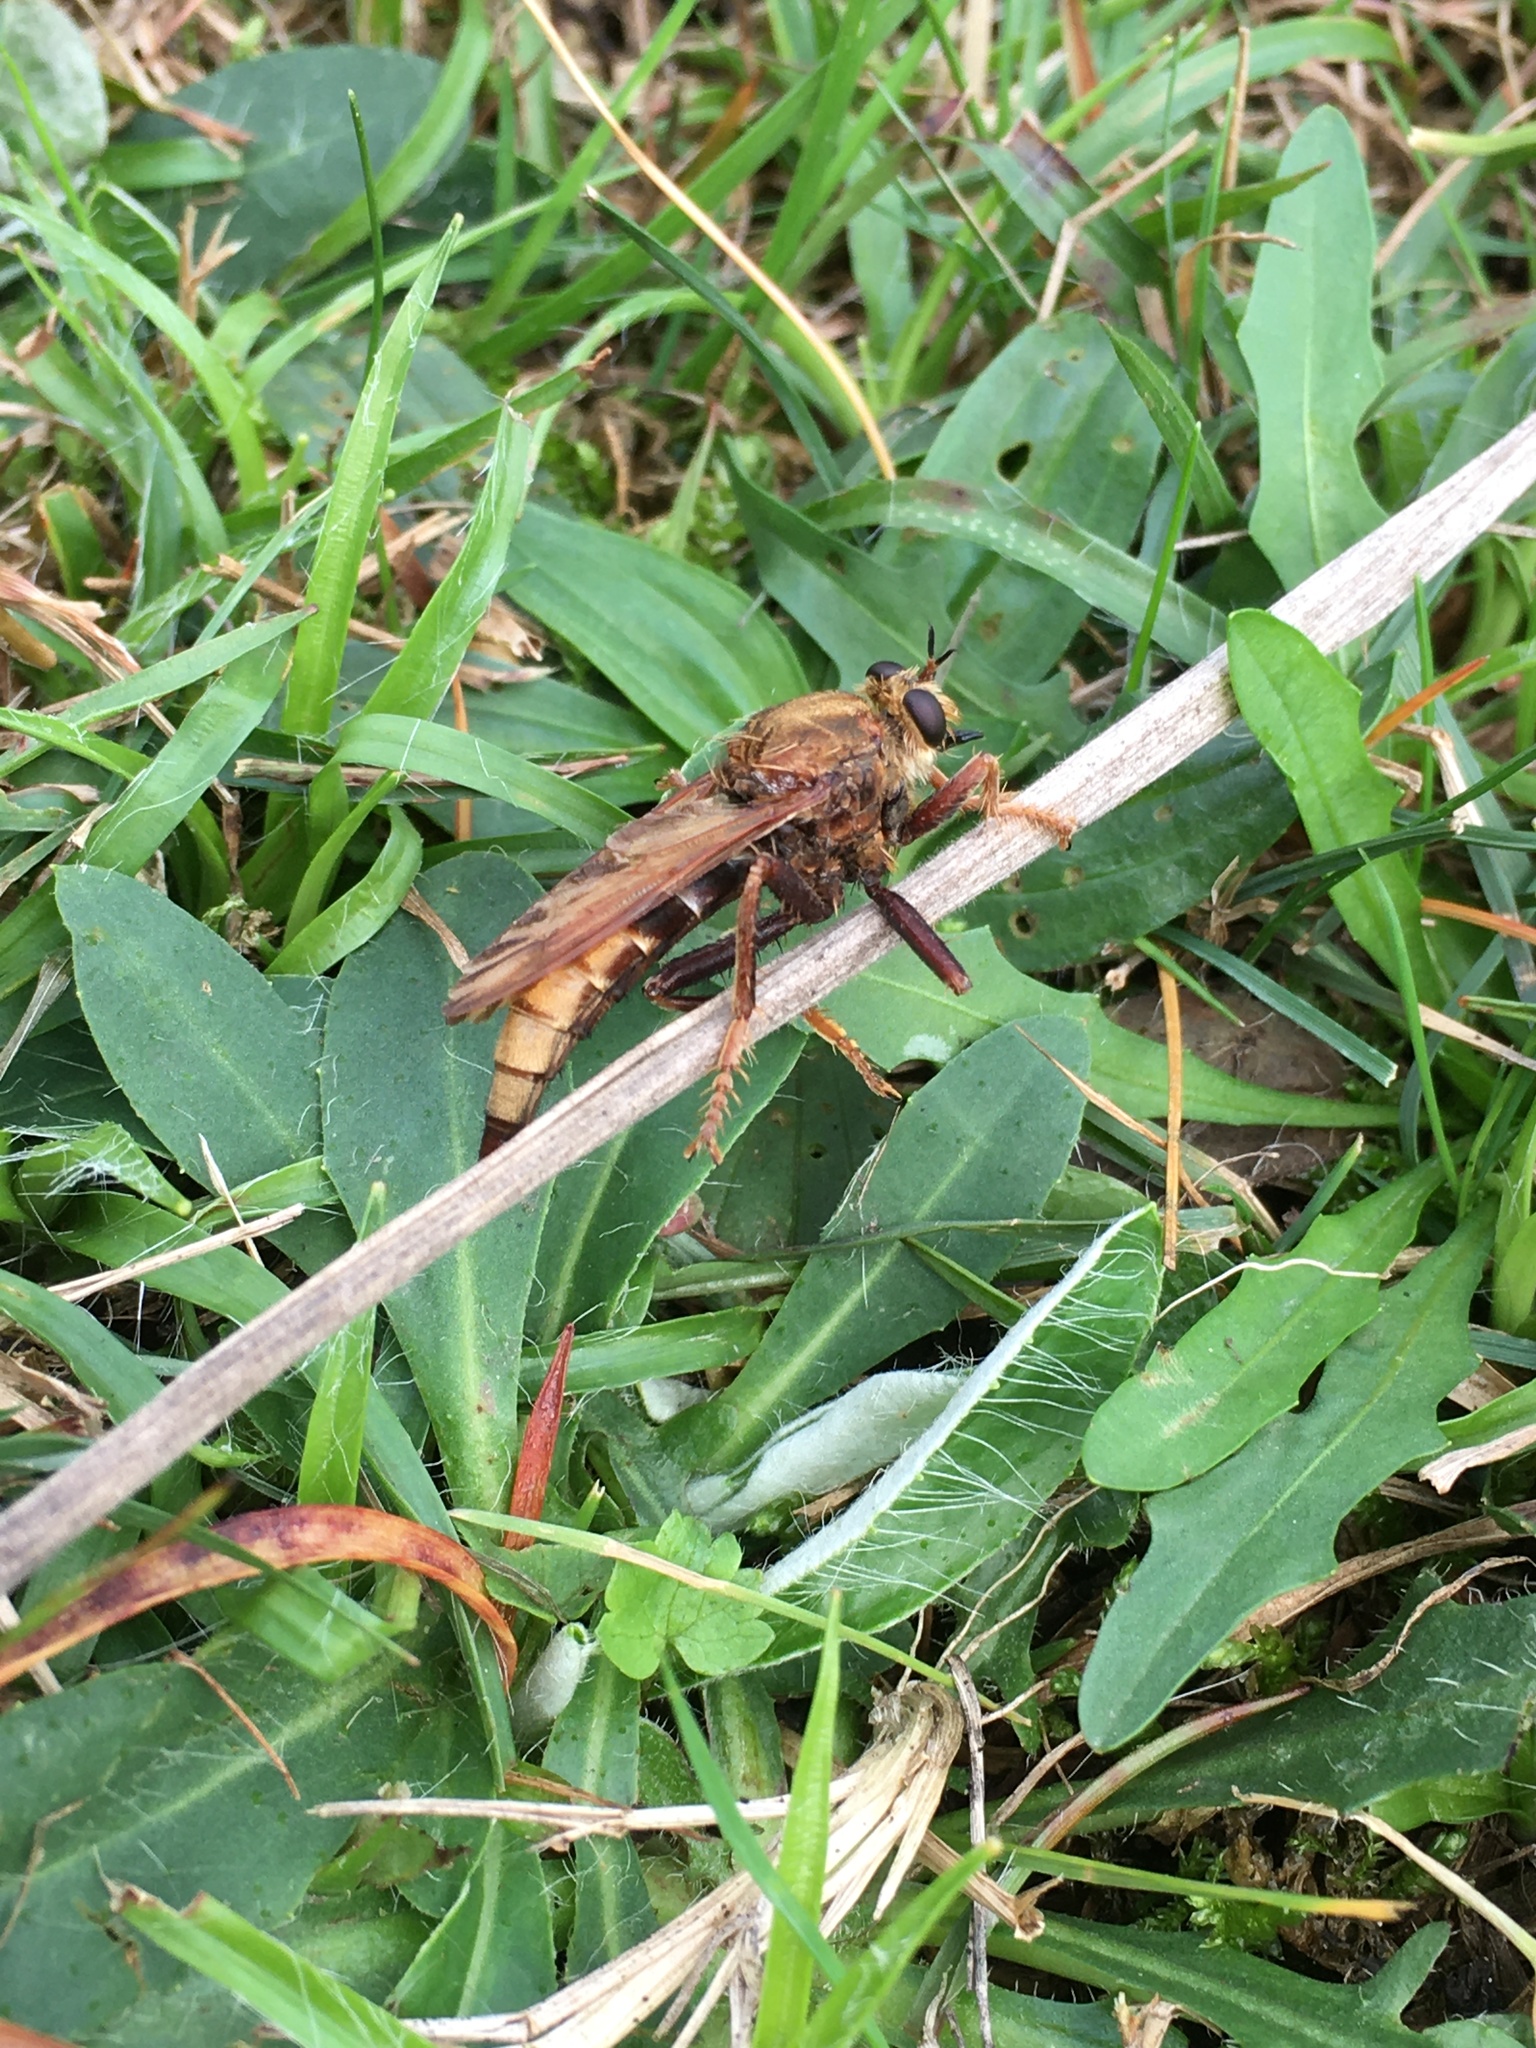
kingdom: Animalia
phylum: Arthropoda
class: Insecta
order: Diptera
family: Asilidae
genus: Asilus
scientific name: Asilus crabroniformis
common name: Hornet robberfly
